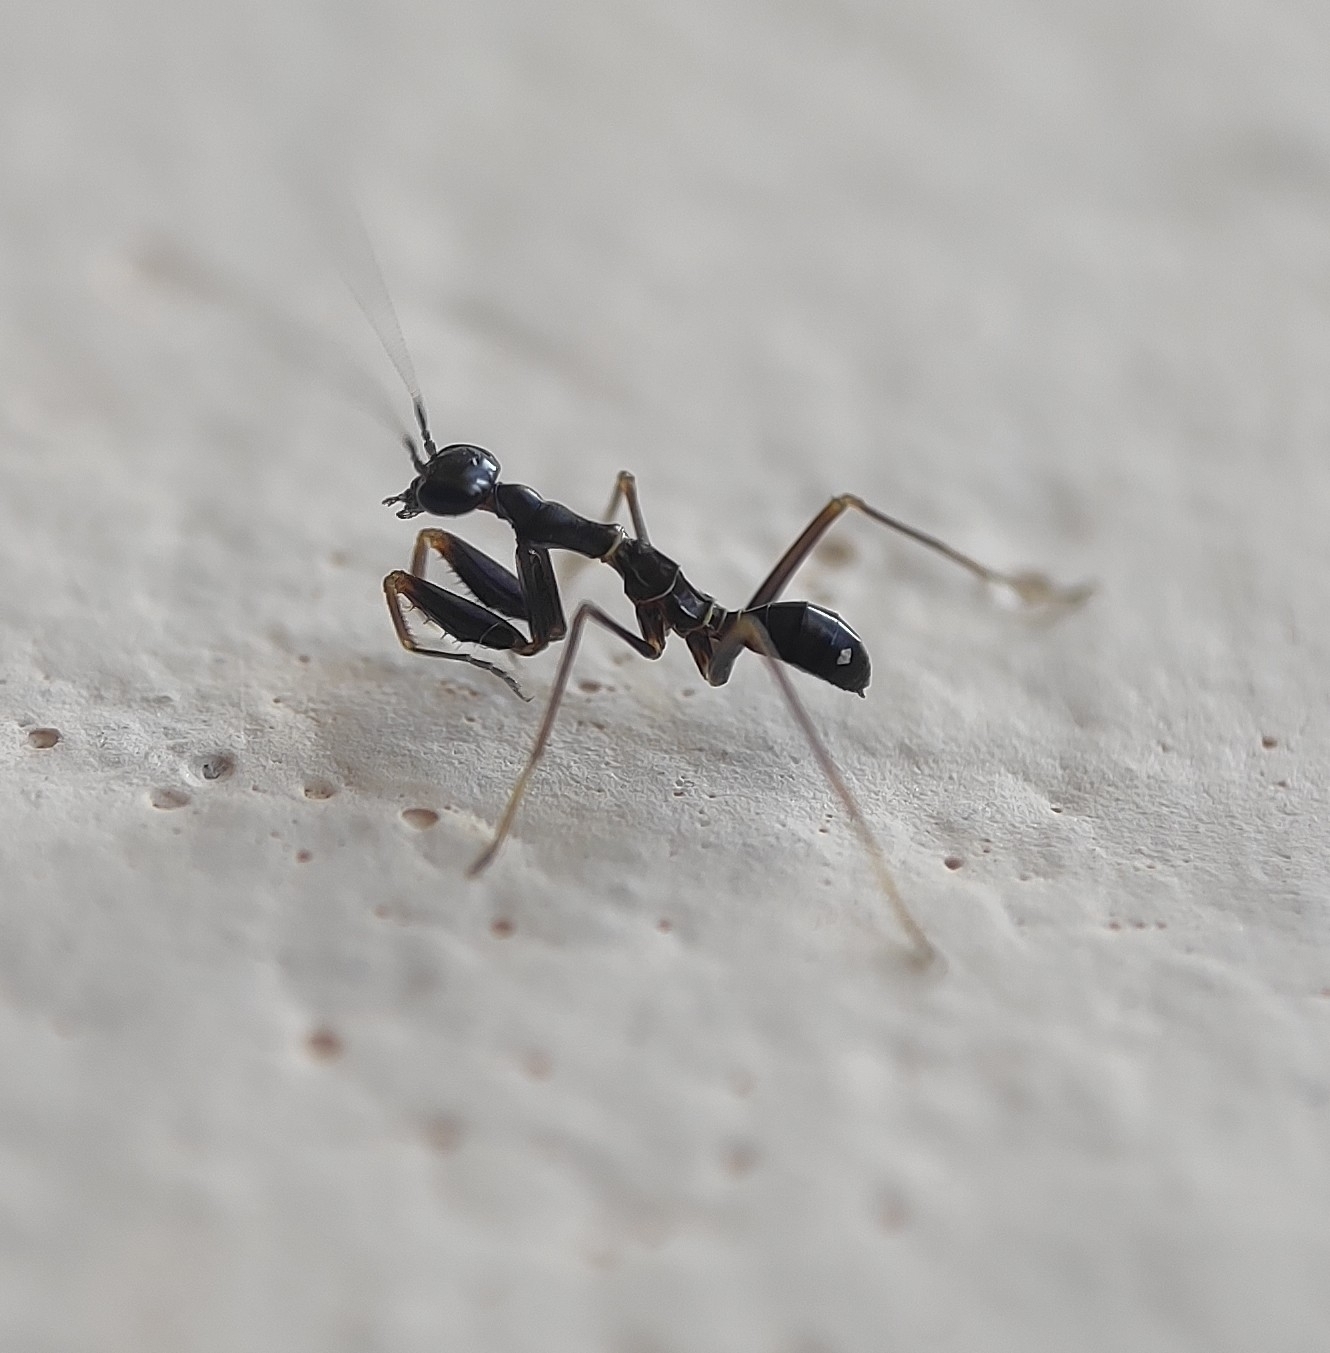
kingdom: Animalia
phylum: Arthropoda
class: Insecta
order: Mantodea
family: Hymenopodidae
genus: Odontomantis
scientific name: Odontomantis planiceps
